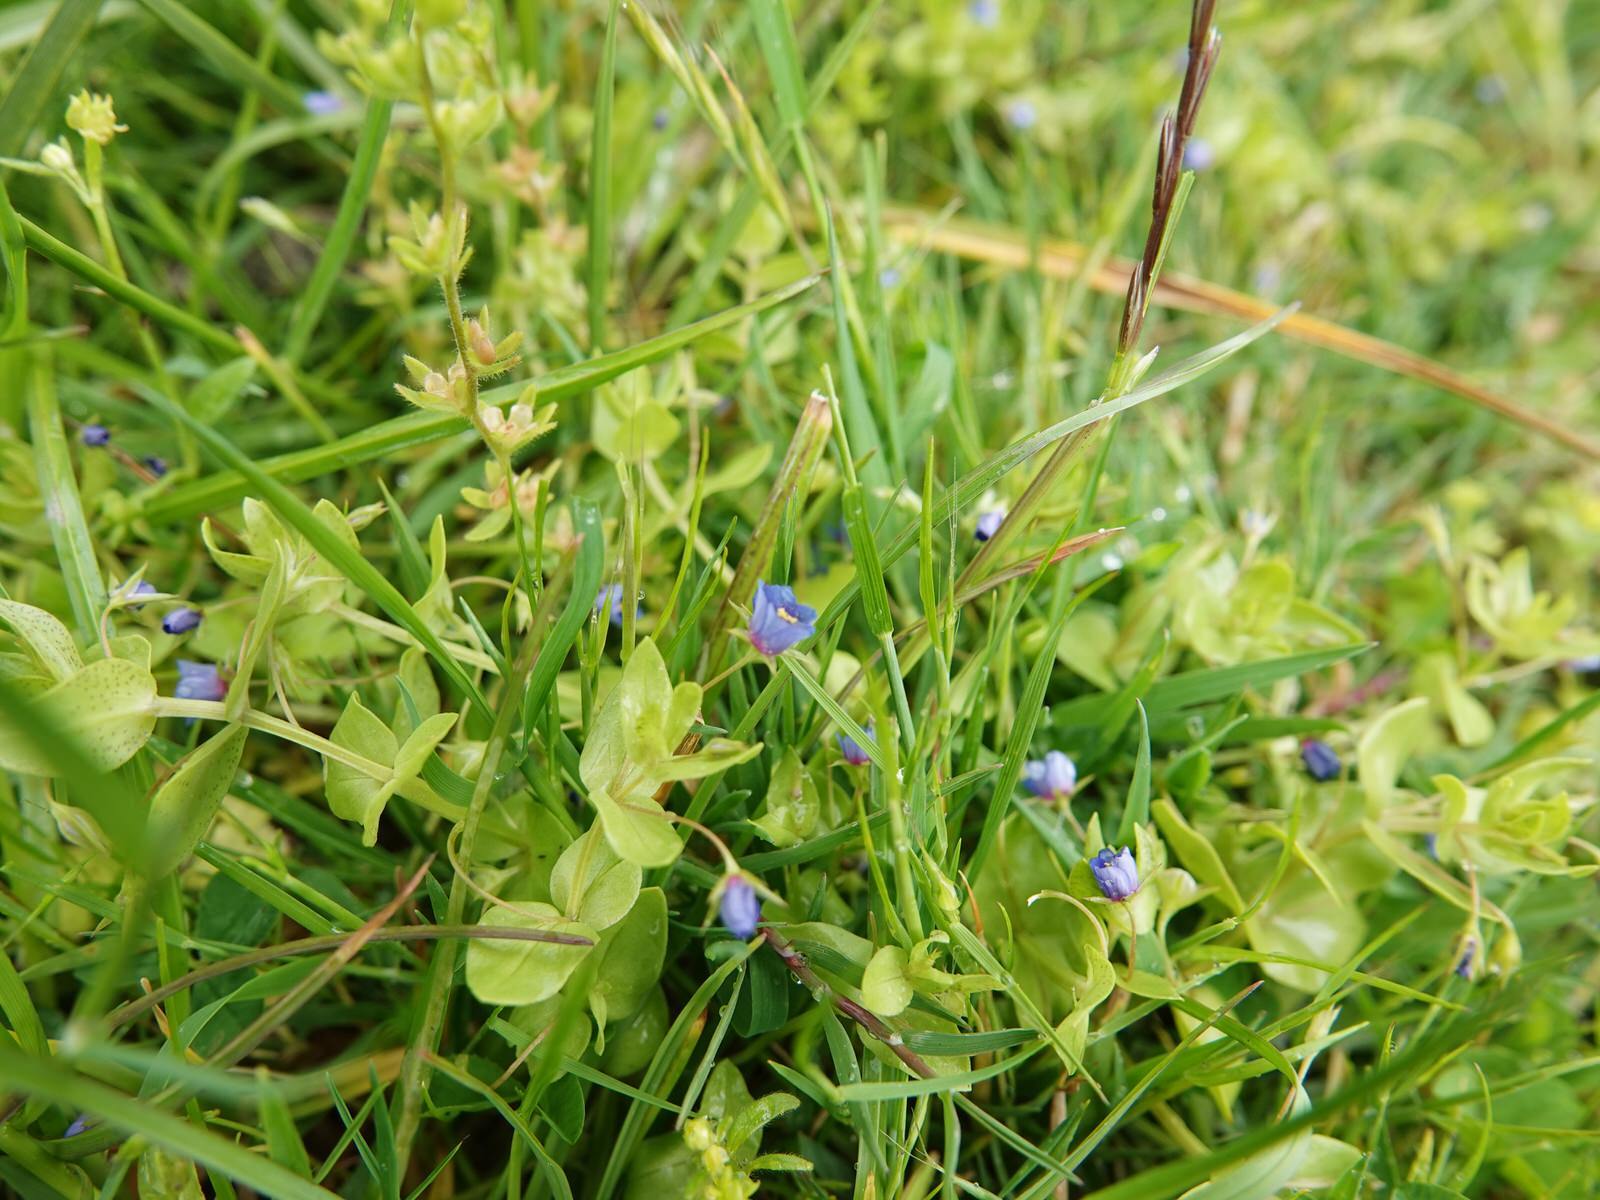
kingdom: Plantae
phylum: Tracheophyta
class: Magnoliopsida
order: Ericales
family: Primulaceae
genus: Lysimachia
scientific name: Lysimachia arvensis
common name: Scarlet pimpernel
